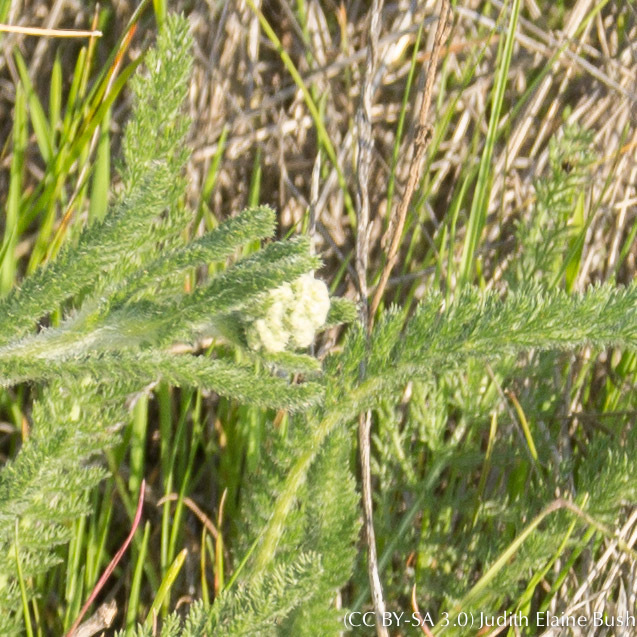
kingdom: Plantae
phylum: Tracheophyta
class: Magnoliopsida
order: Asterales
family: Asteraceae
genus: Achillea
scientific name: Achillea millefolium
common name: Yarrow
